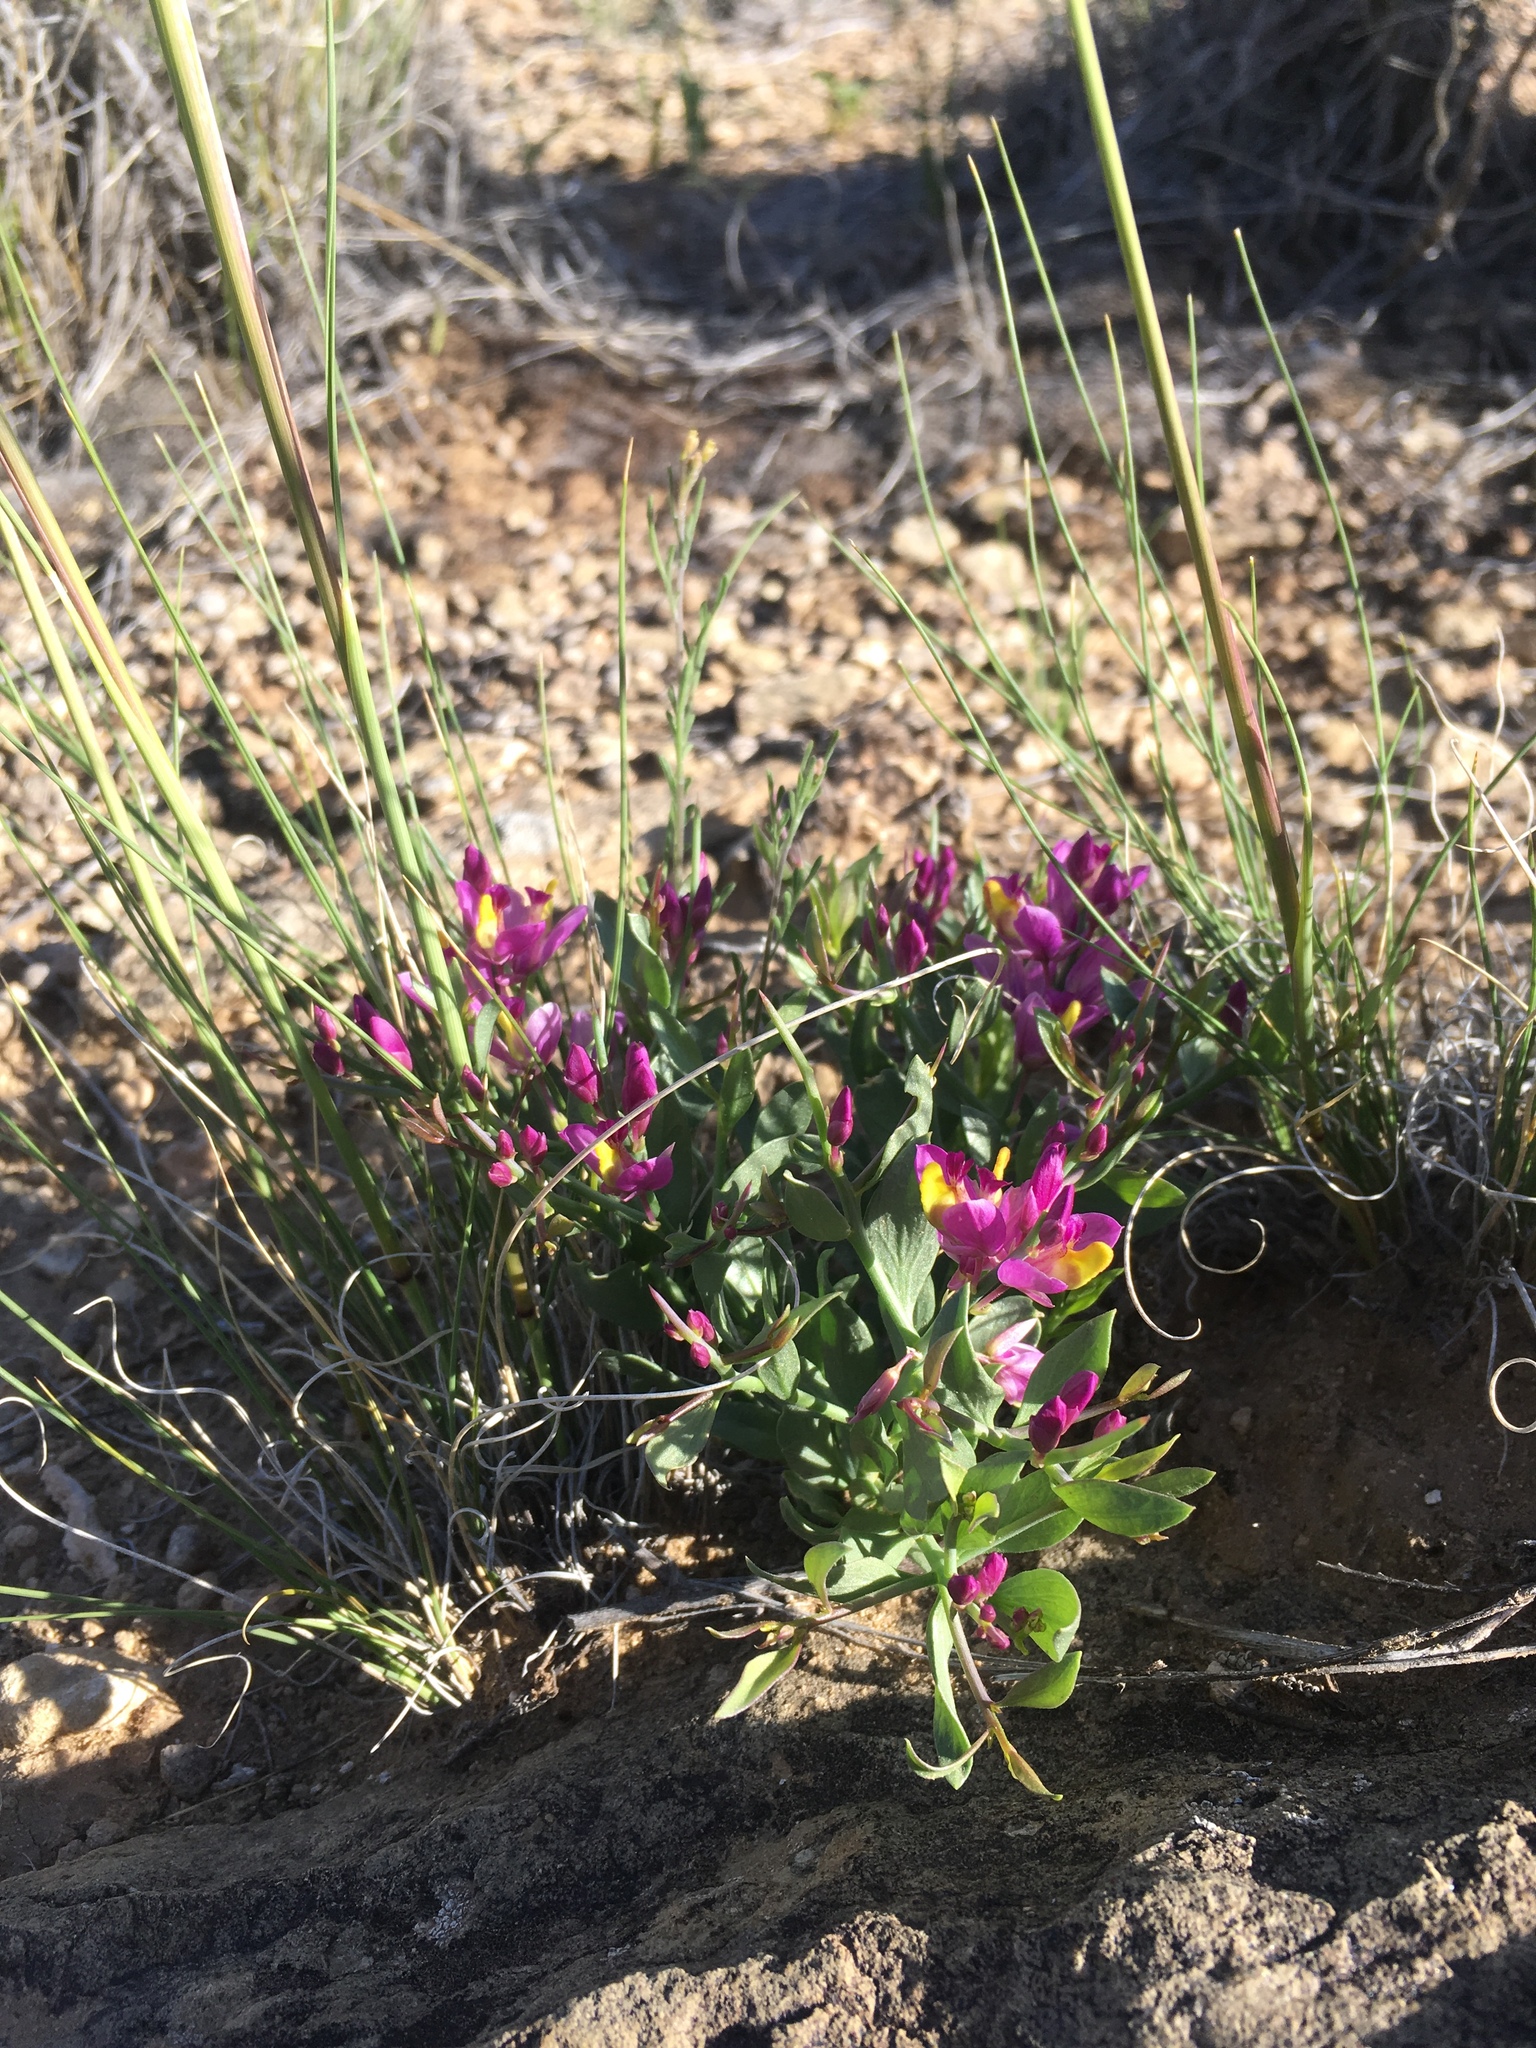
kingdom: Plantae
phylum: Tracheophyta
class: Magnoliopsida
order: Fabales
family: Polygalaceae
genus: Rhinotropis
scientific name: Rhinotropis subspinosa
